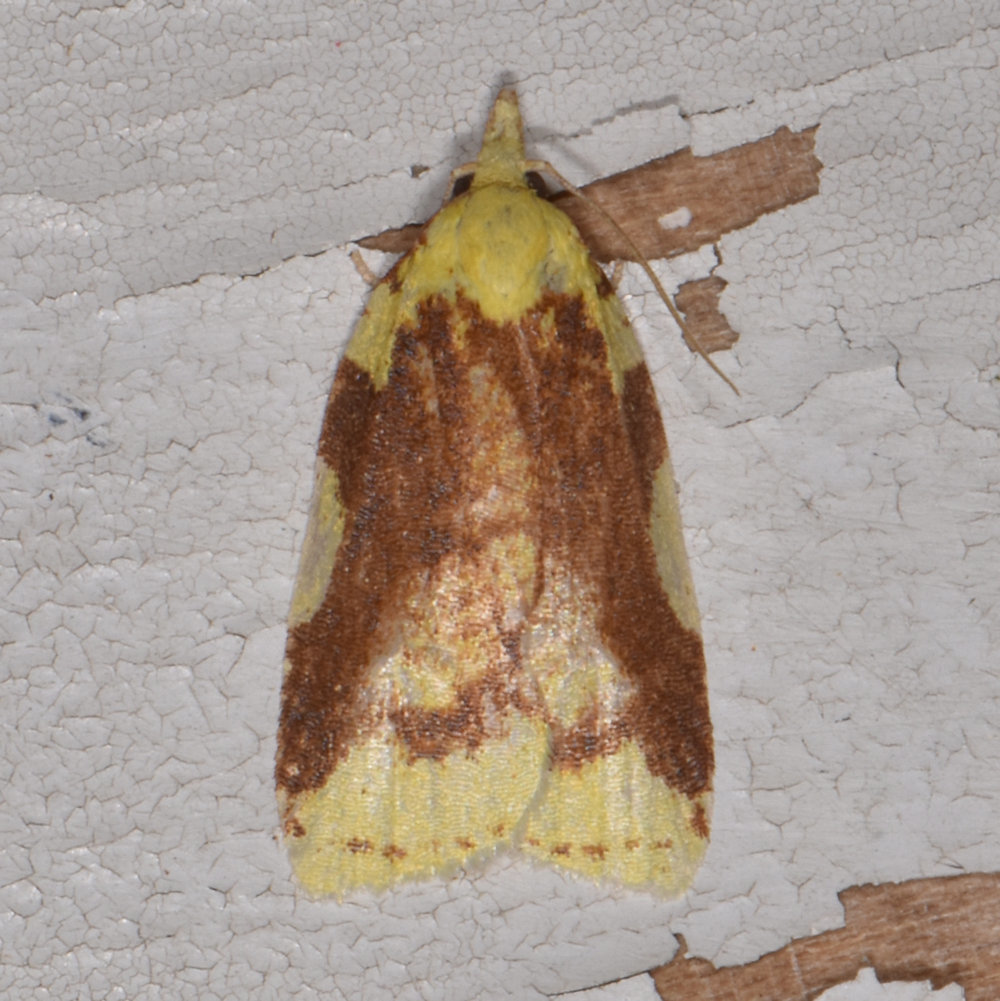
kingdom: Animalia
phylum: Arthropoda
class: Insecta
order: Lepidoptera
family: Tortricidae
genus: Cenopis
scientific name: Cenopis niveana
